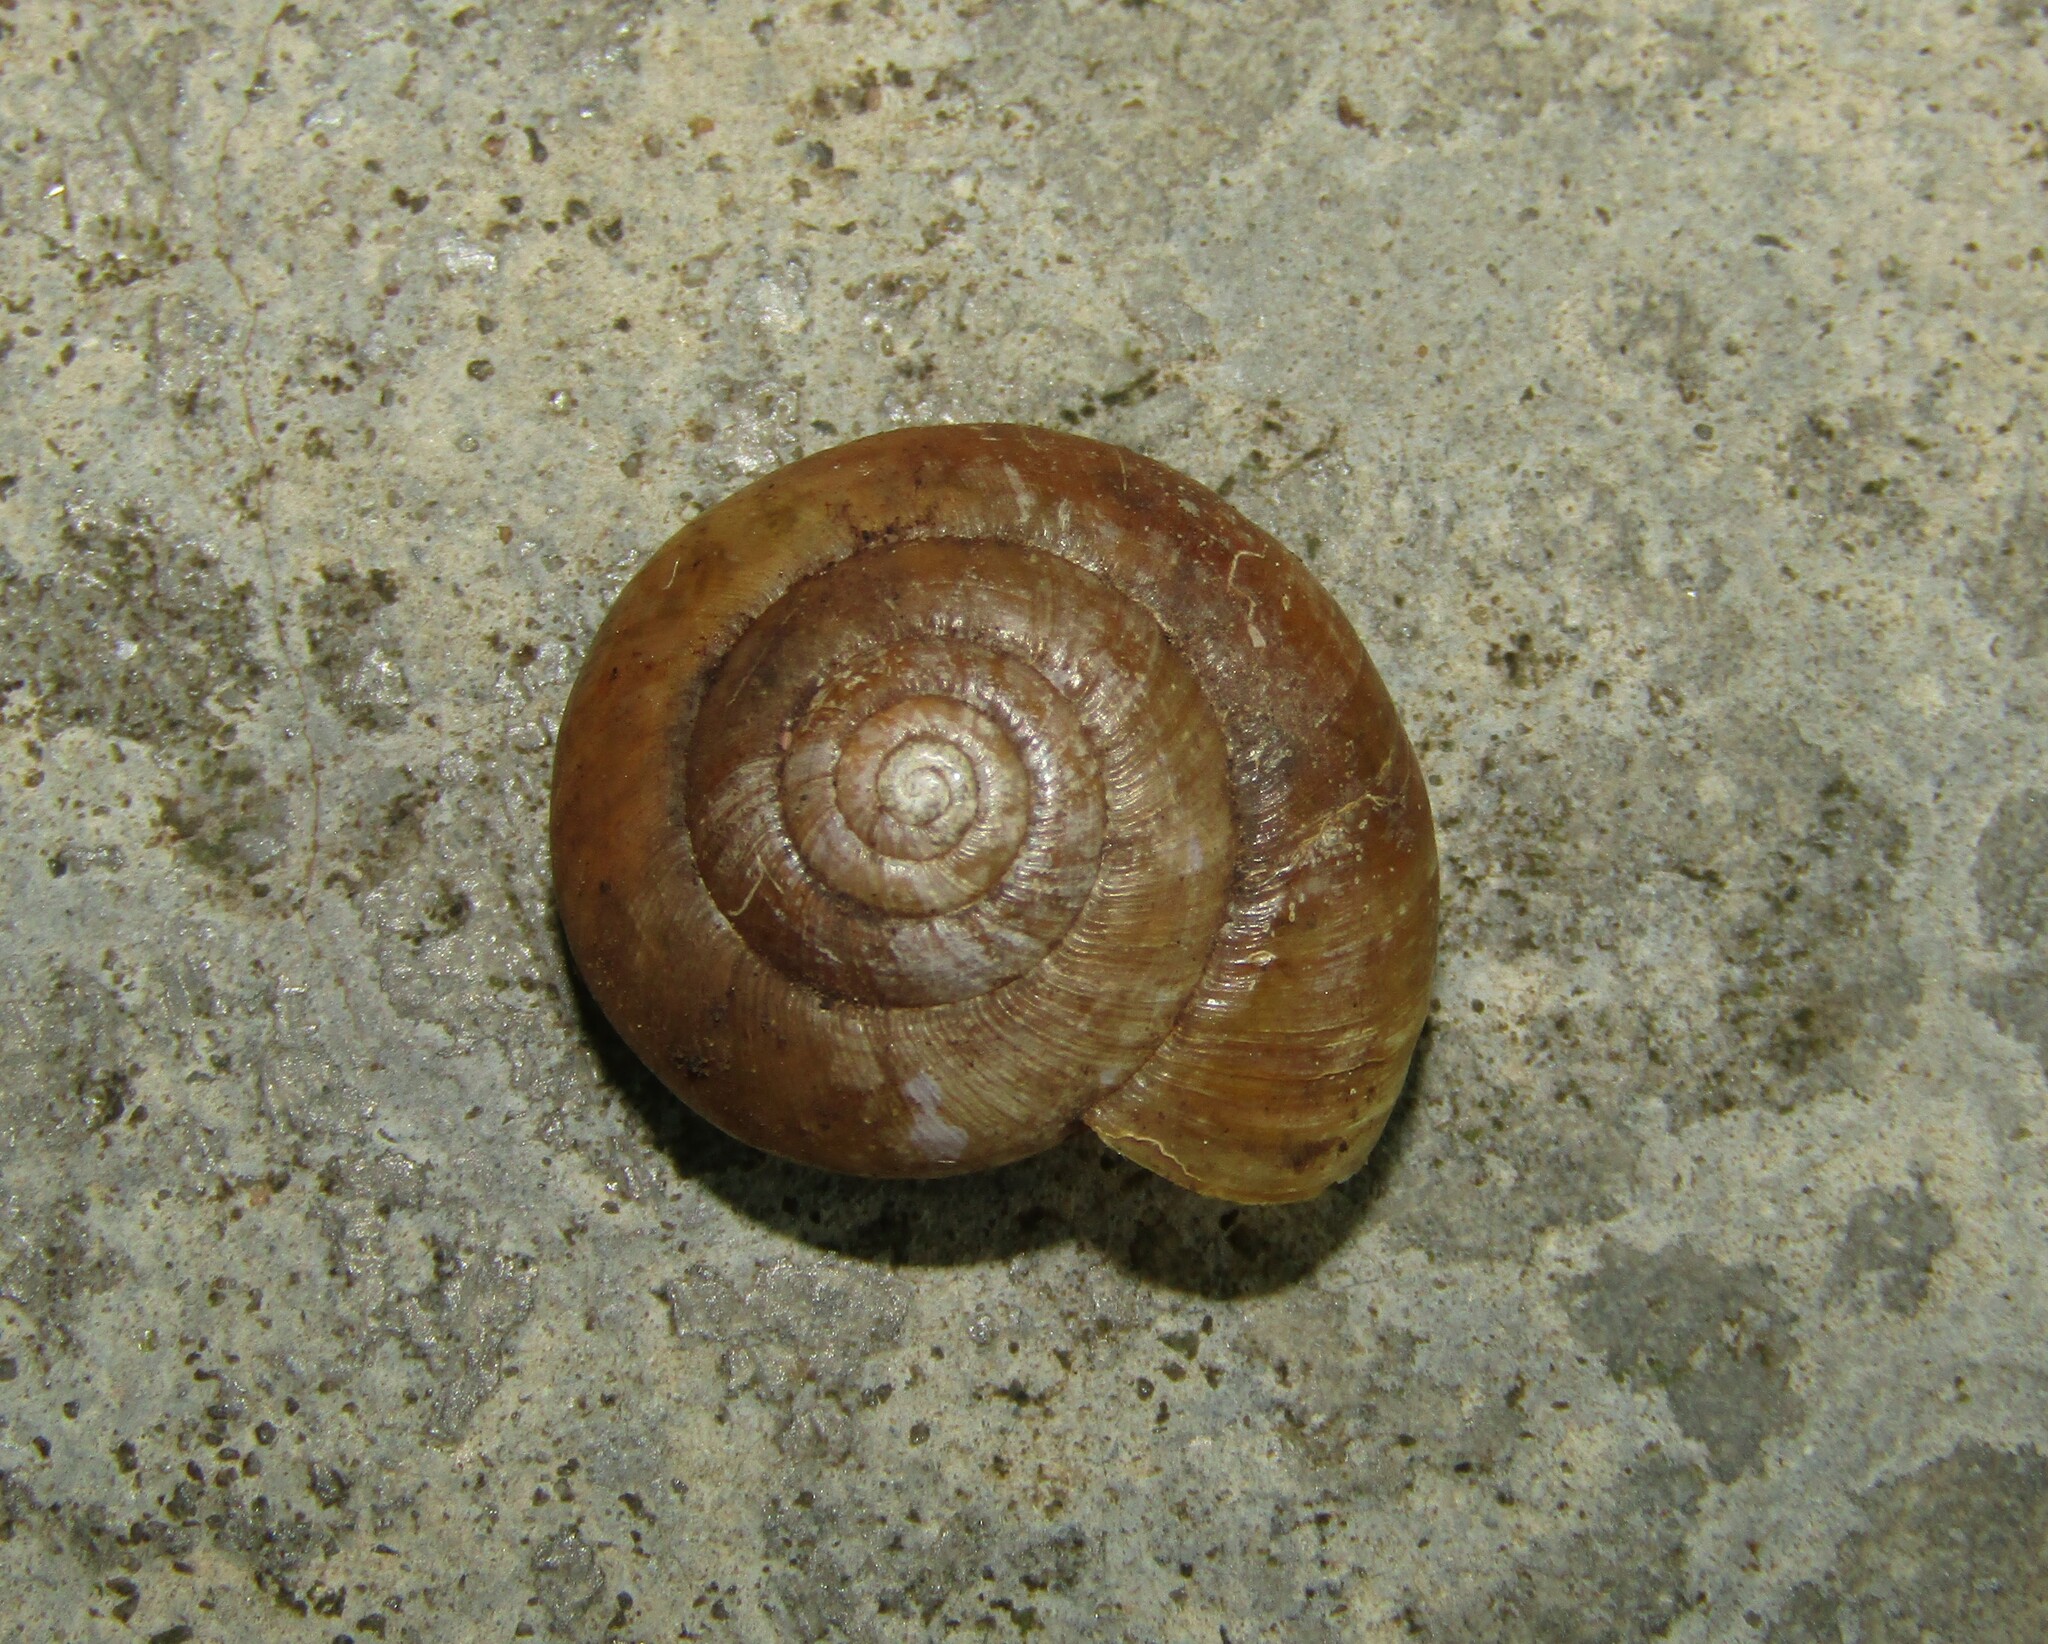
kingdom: Animalia
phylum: Mollusca
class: Gastropoda
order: Stylommatophora
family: Oxychilidae
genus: Oxychilus
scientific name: Oxychilus mingrelicus
